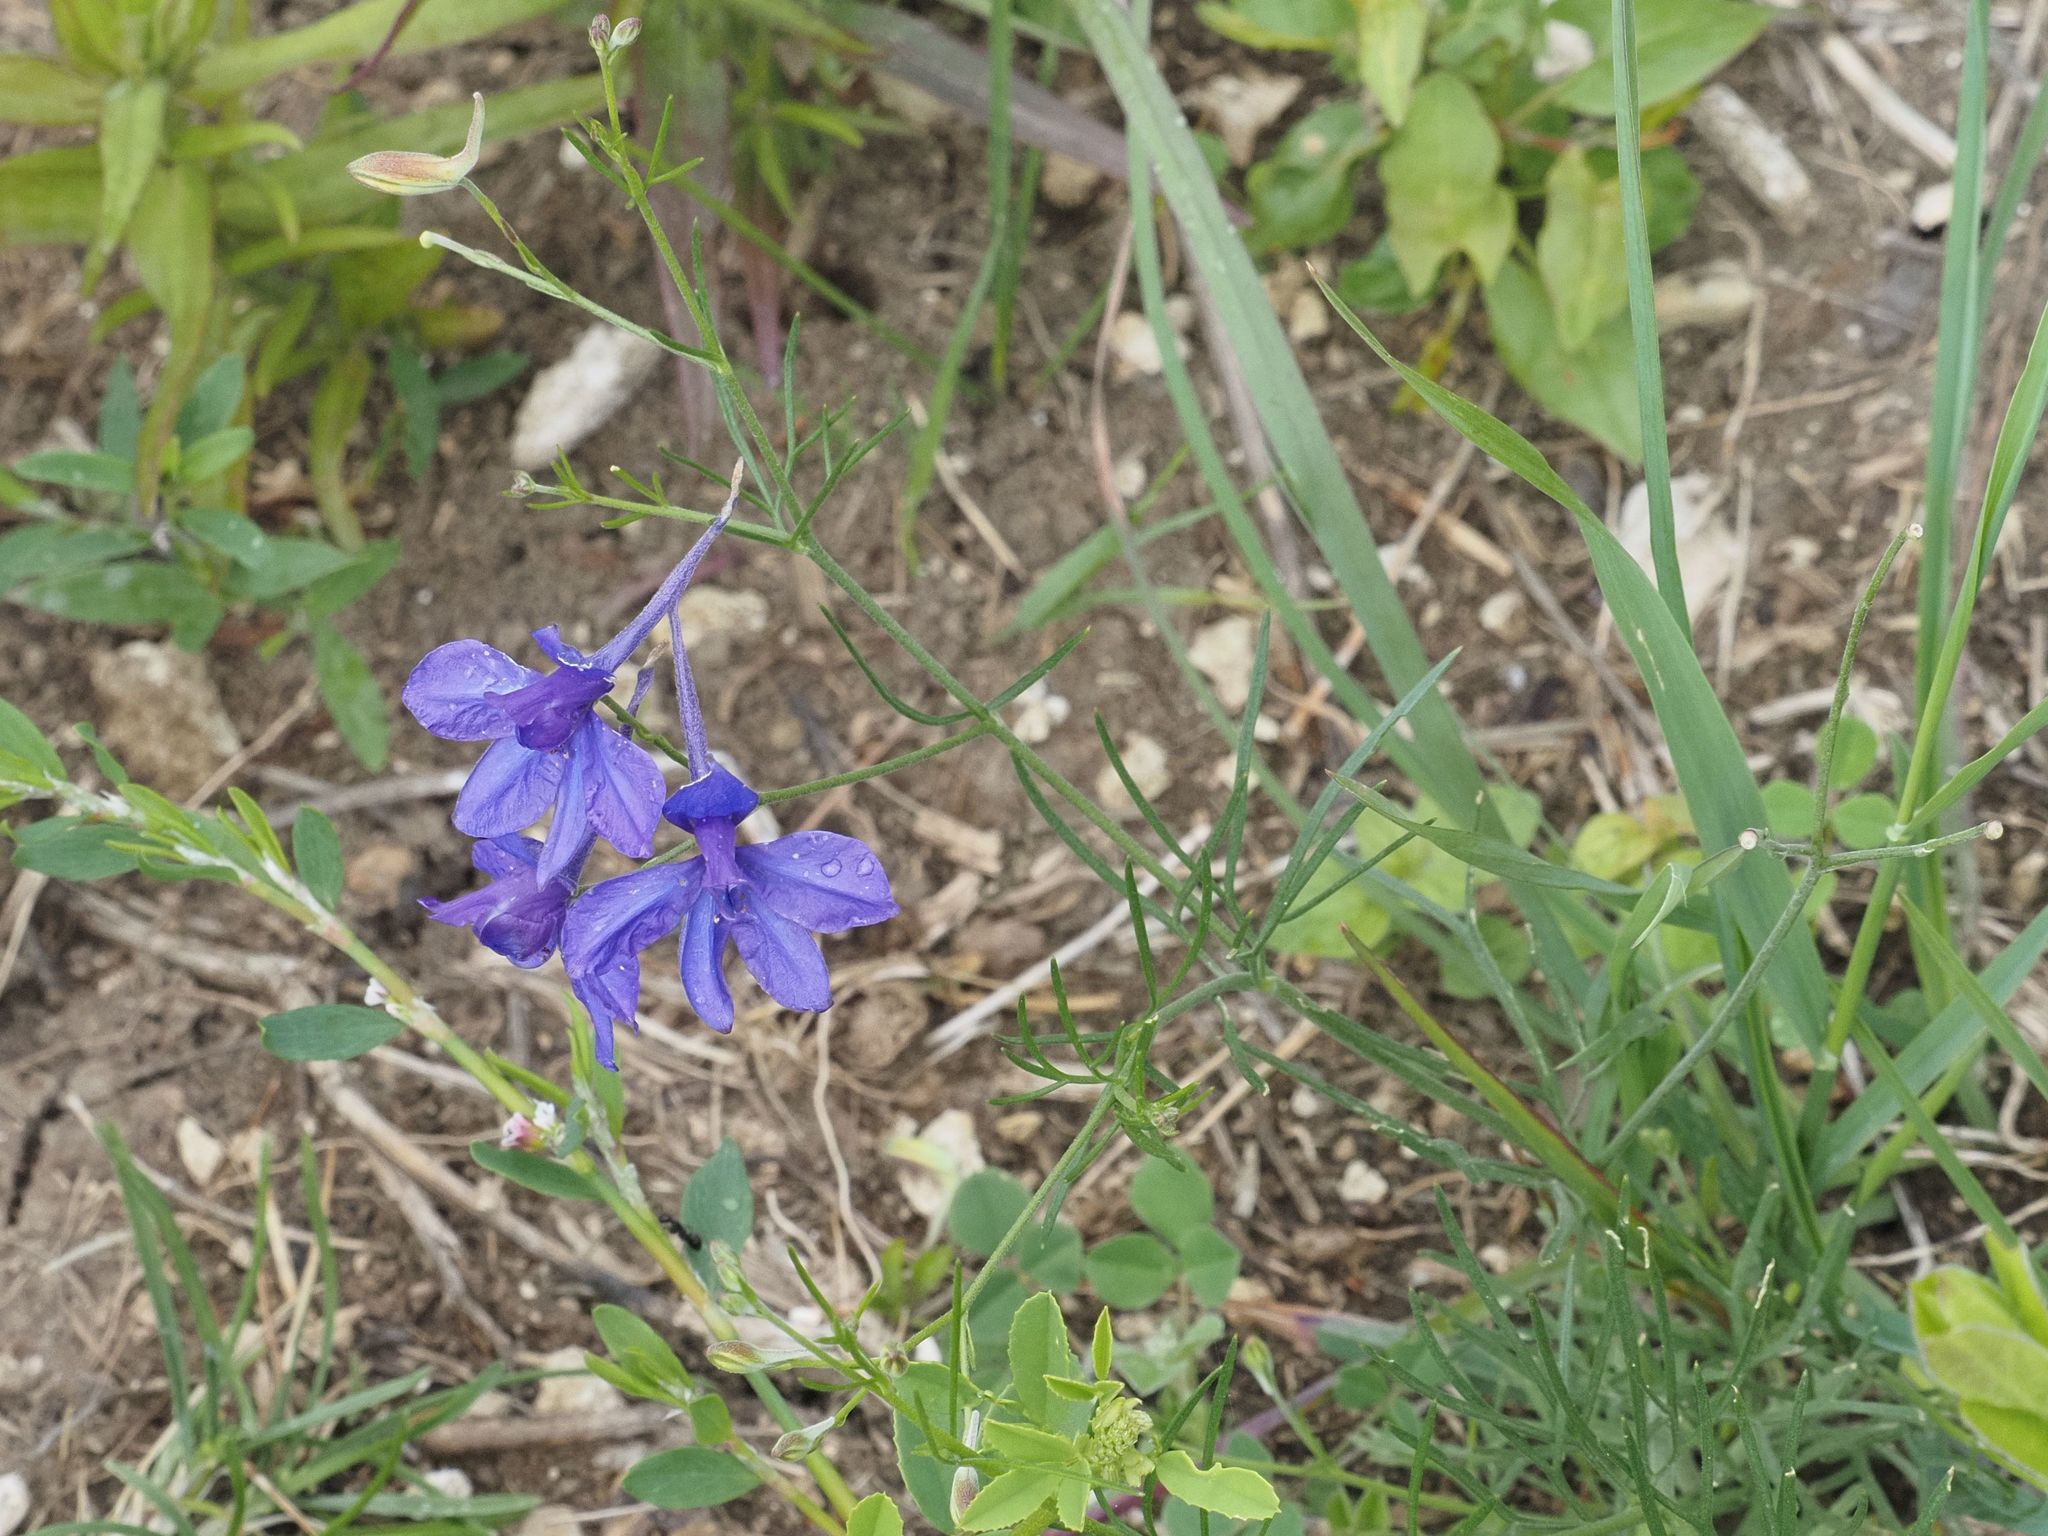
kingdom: Plantae
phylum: Tracheophyta
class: Magnoliopsida
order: Ranunculales
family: Ranunculaceae
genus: Delphinium
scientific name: Delphinium consolida
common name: Branching larkspur
